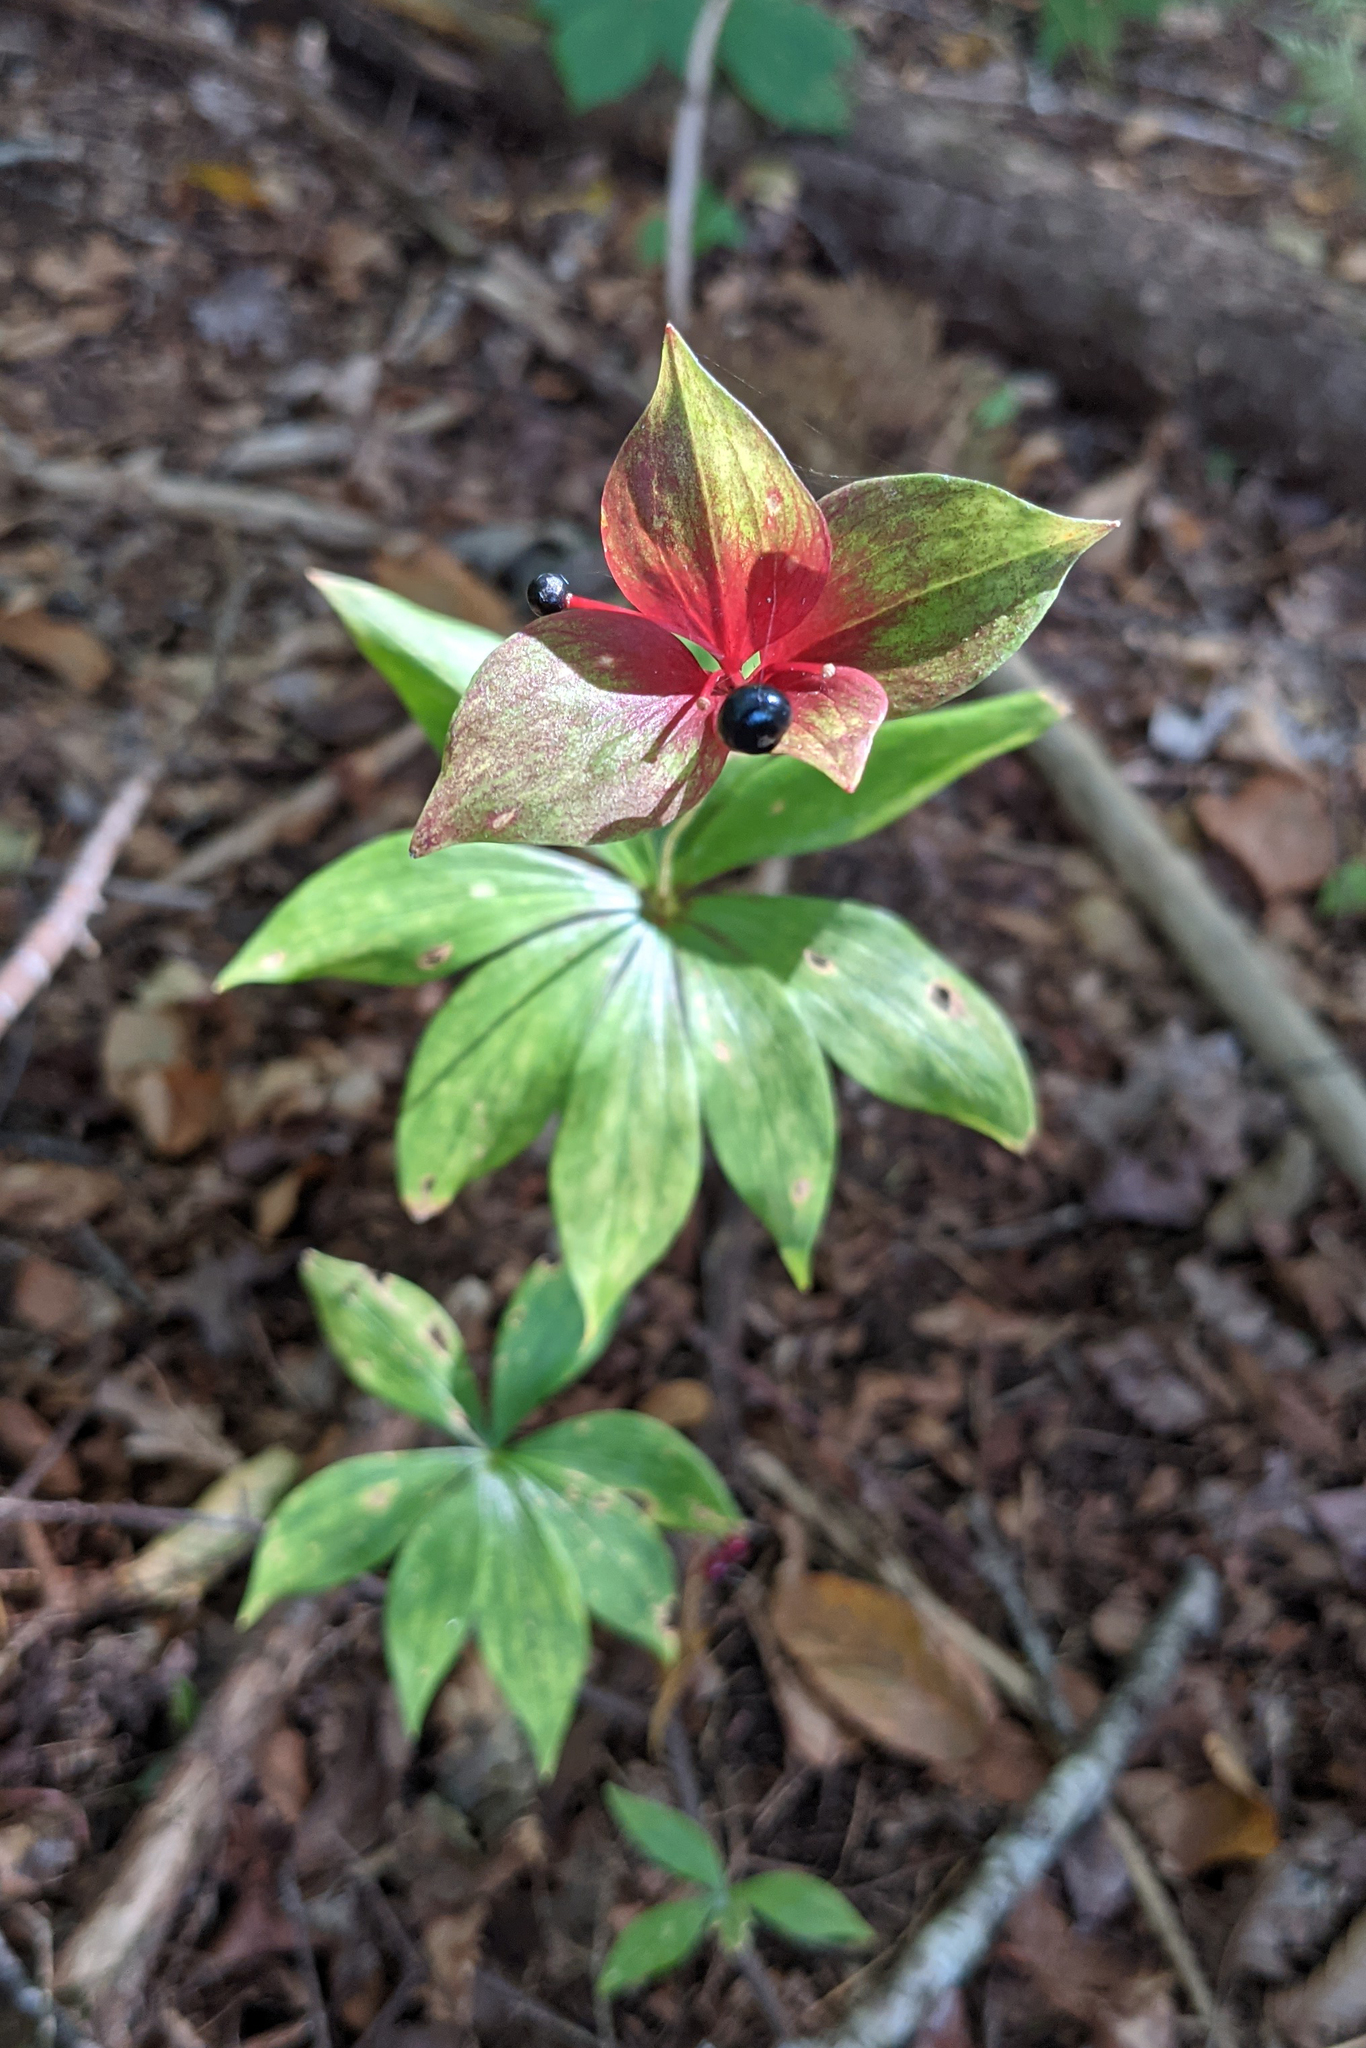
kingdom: Plantae
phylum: Tracheophyta
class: Liliopsida
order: Liliales
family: Liliaceae
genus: Medeola
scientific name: Medeola virginiana
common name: Indian cucumber-root
